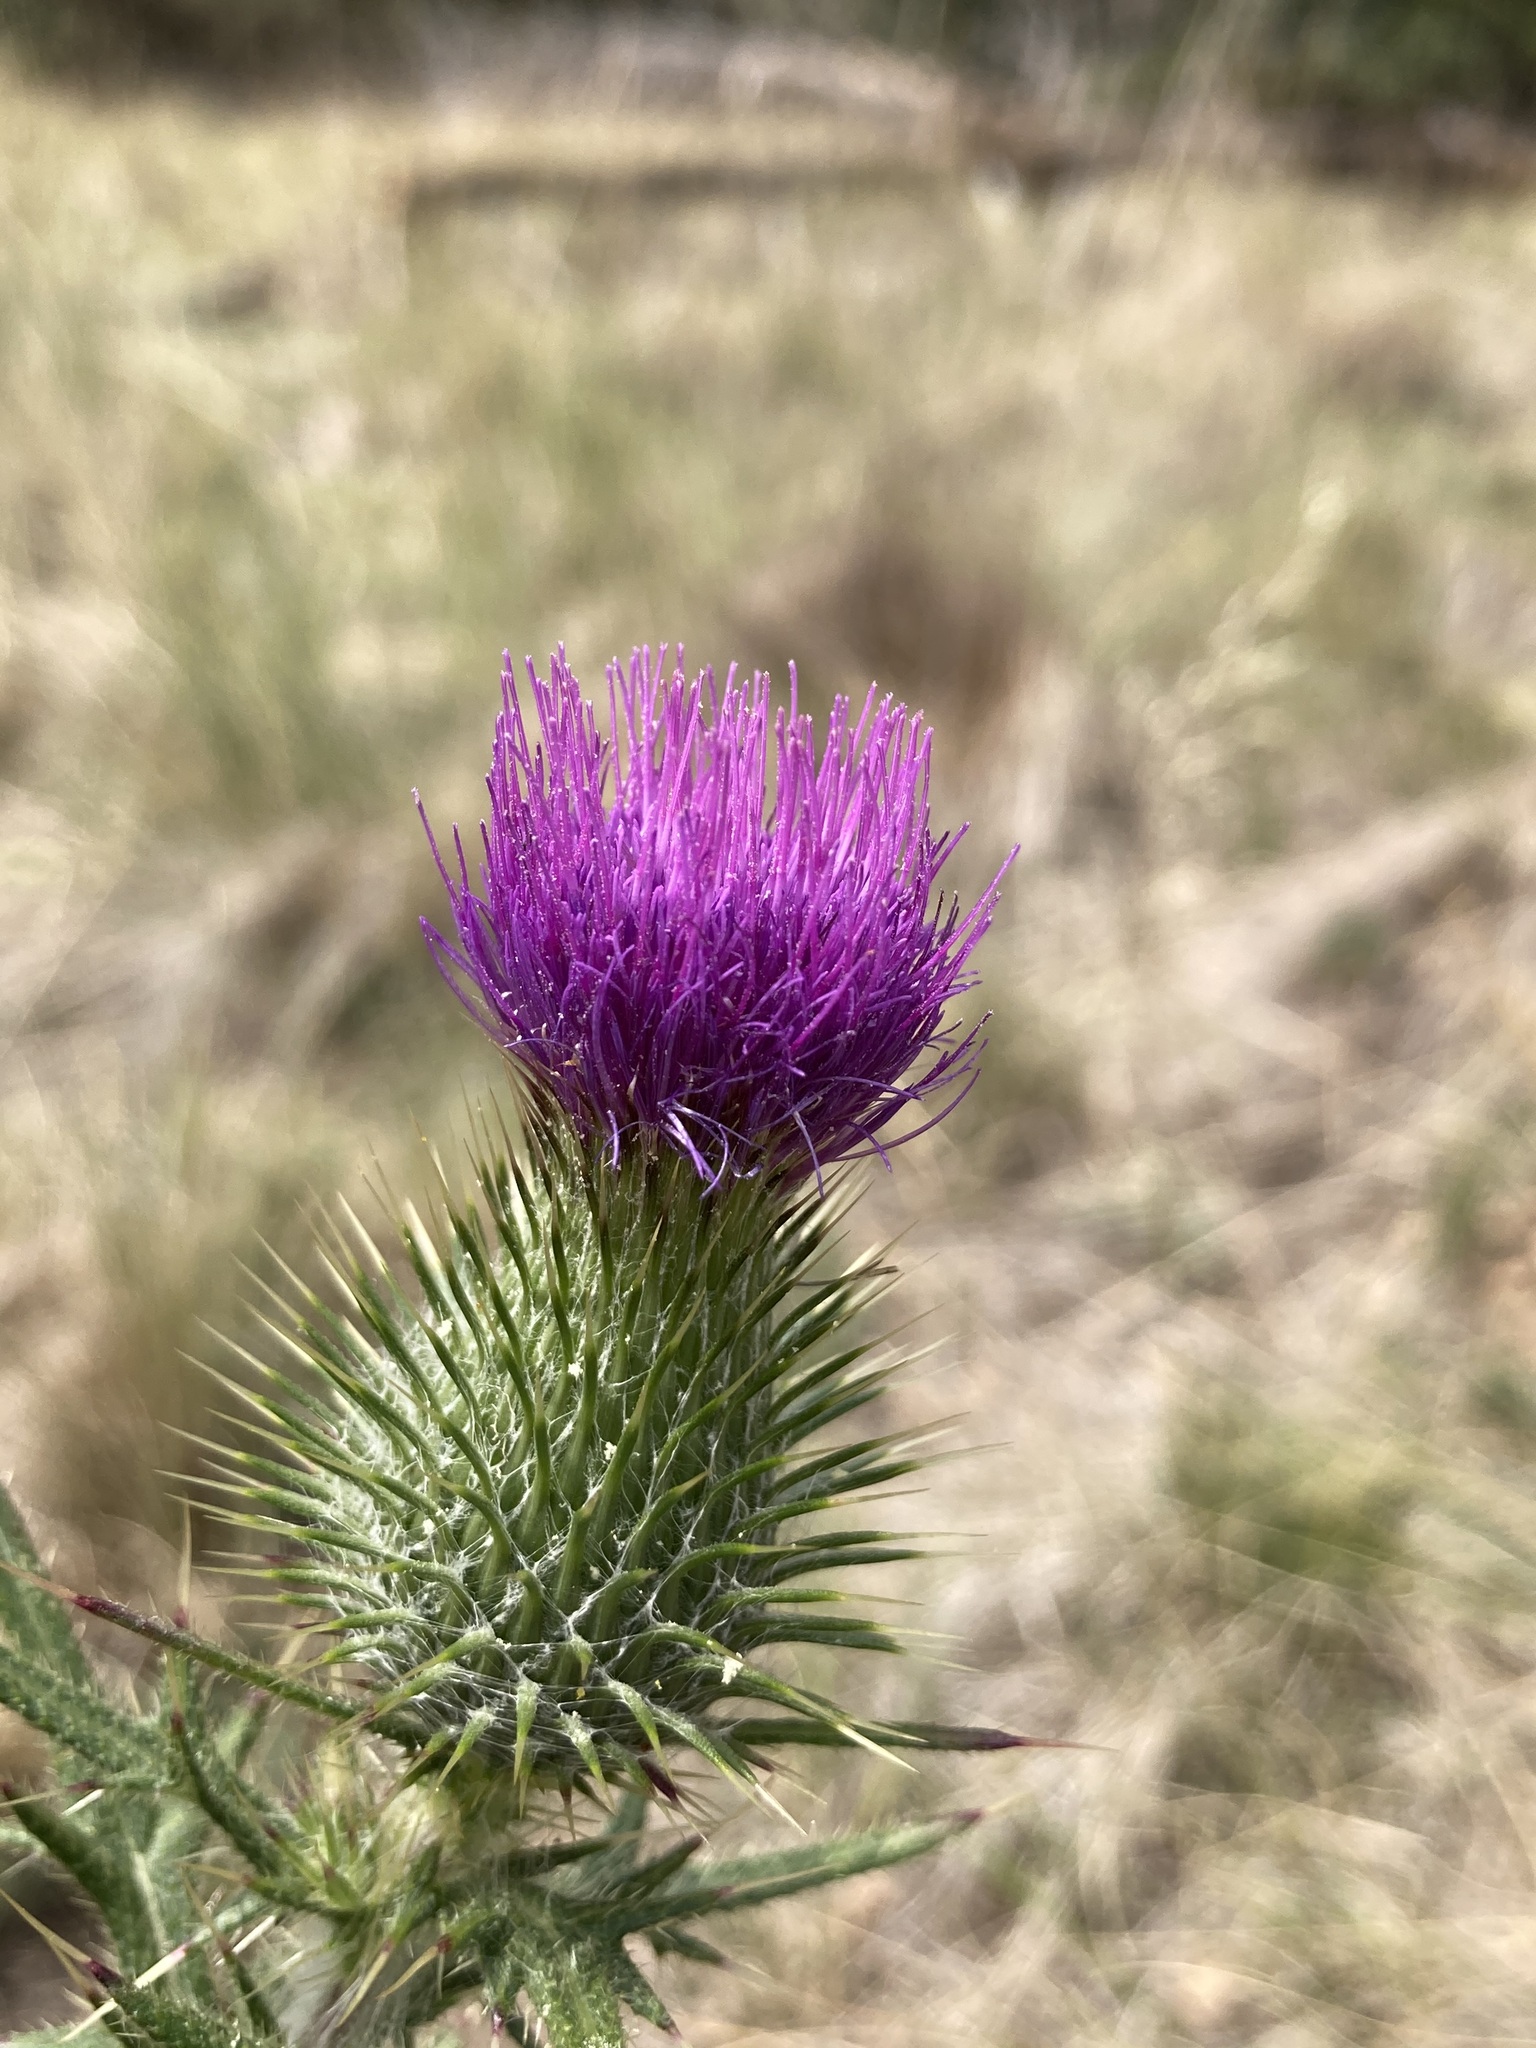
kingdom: Plantae
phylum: Tracheophyta
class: Magnoliopsida
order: Asterales
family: Asteraceae
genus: Cirsium
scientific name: Cirsium vulgare
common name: Bull thistle
